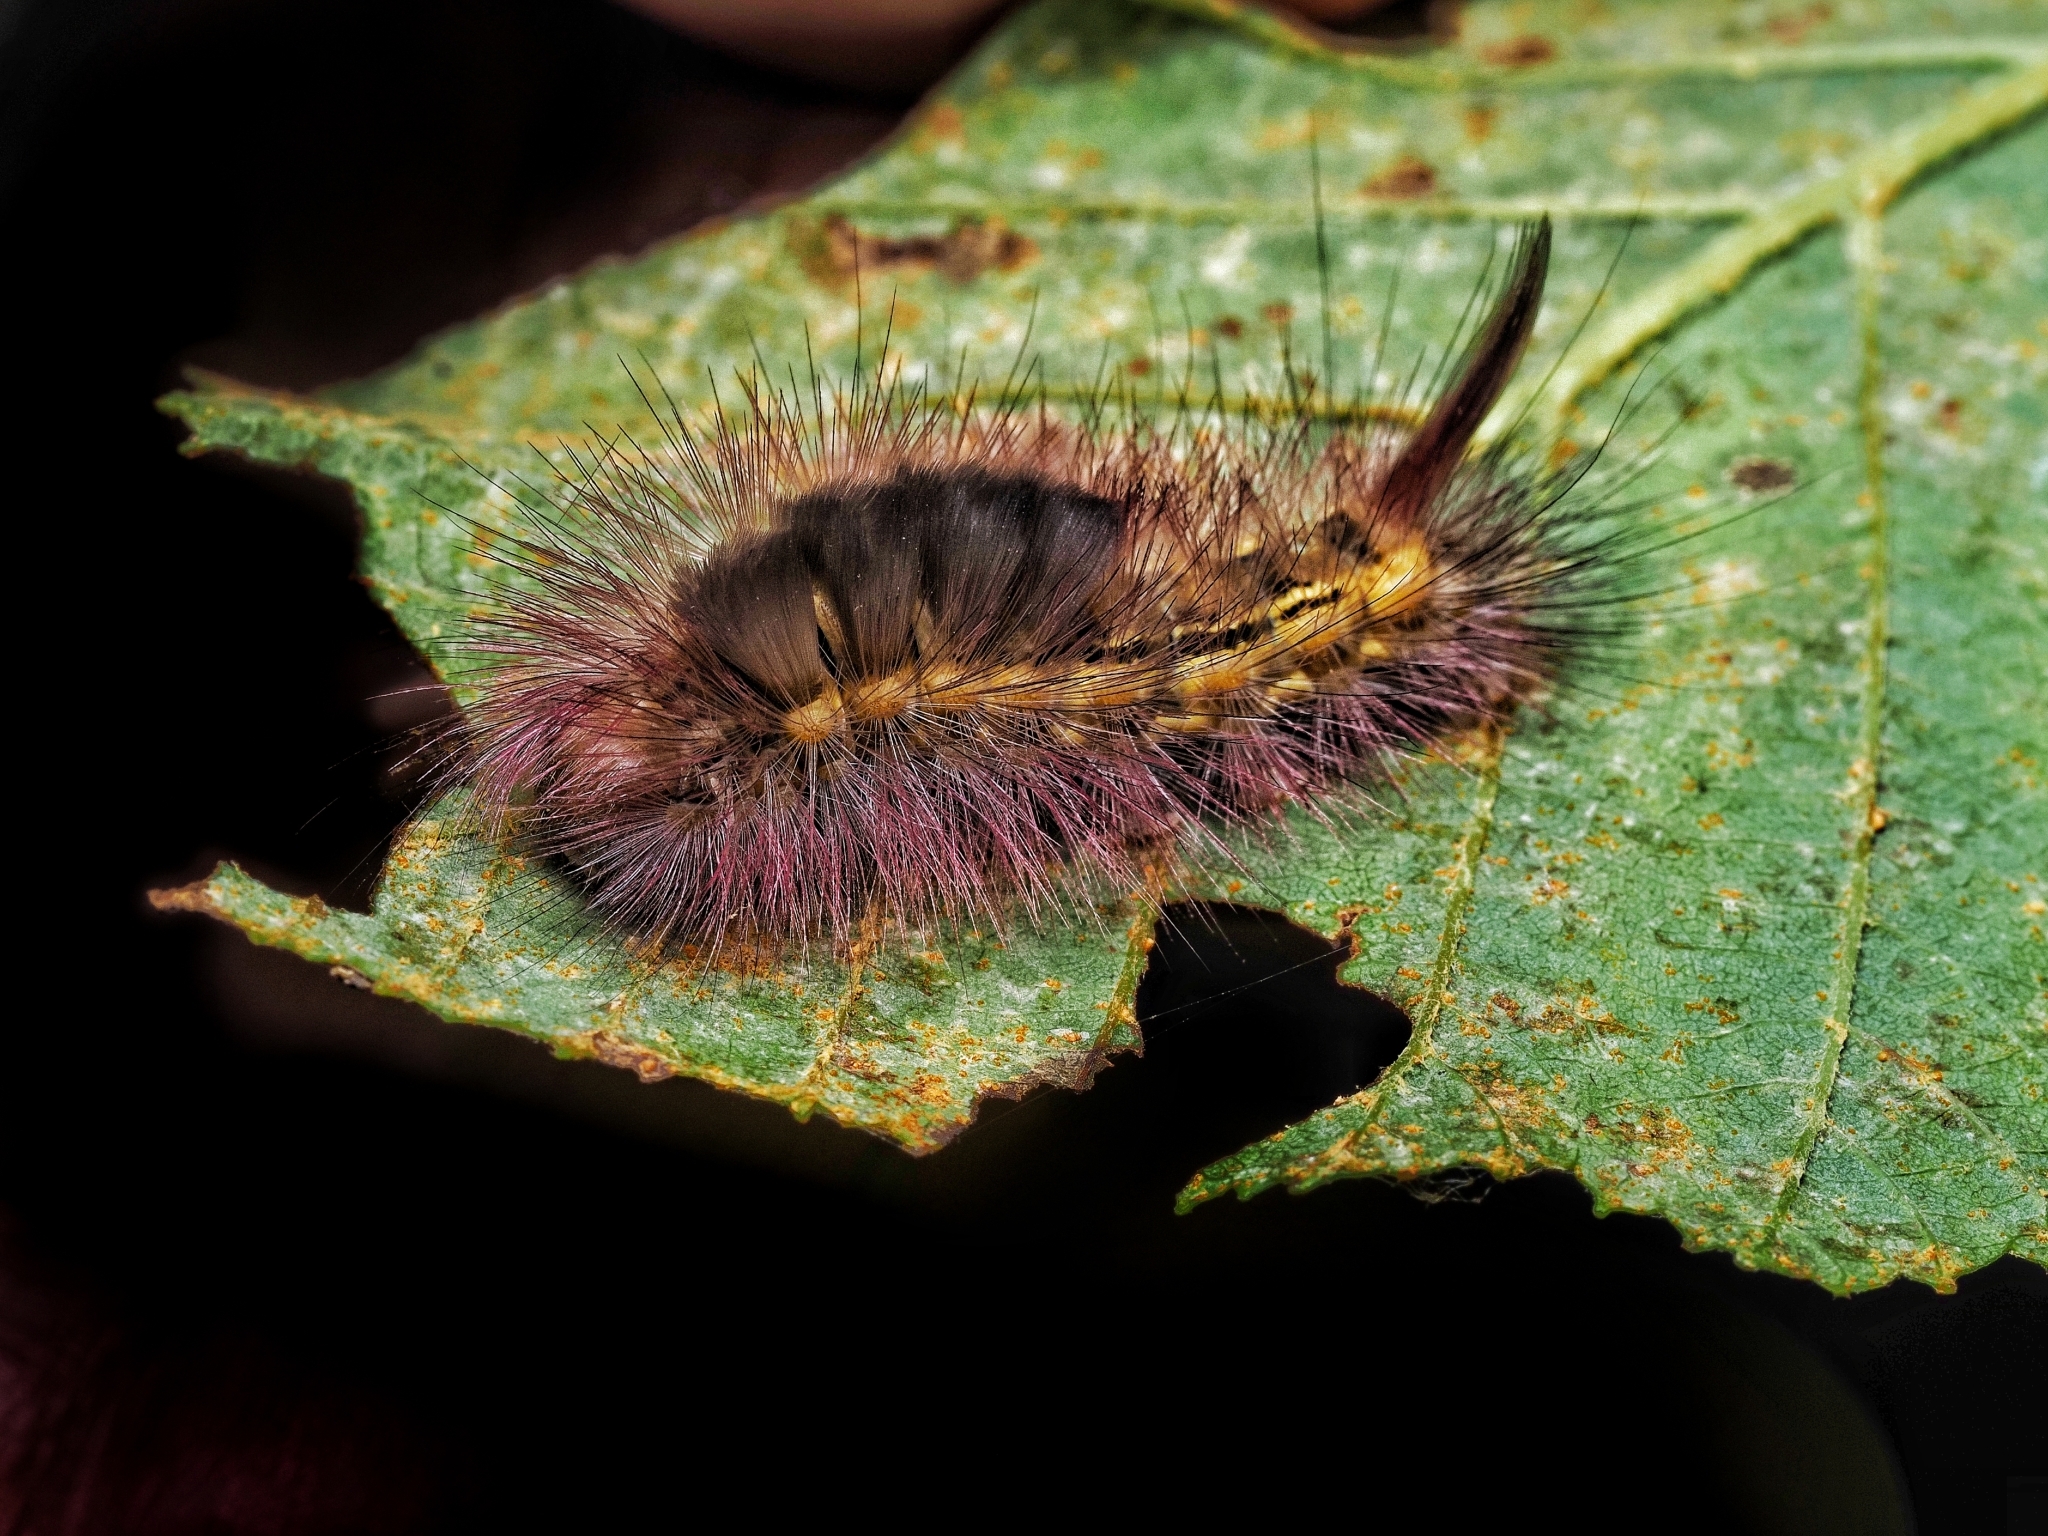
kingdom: Animalia
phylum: Arthropoda
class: Insecta
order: Lepidoptera
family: Erebidae
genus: Calliteara
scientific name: Calliteara pudibunda
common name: Pale tussock
